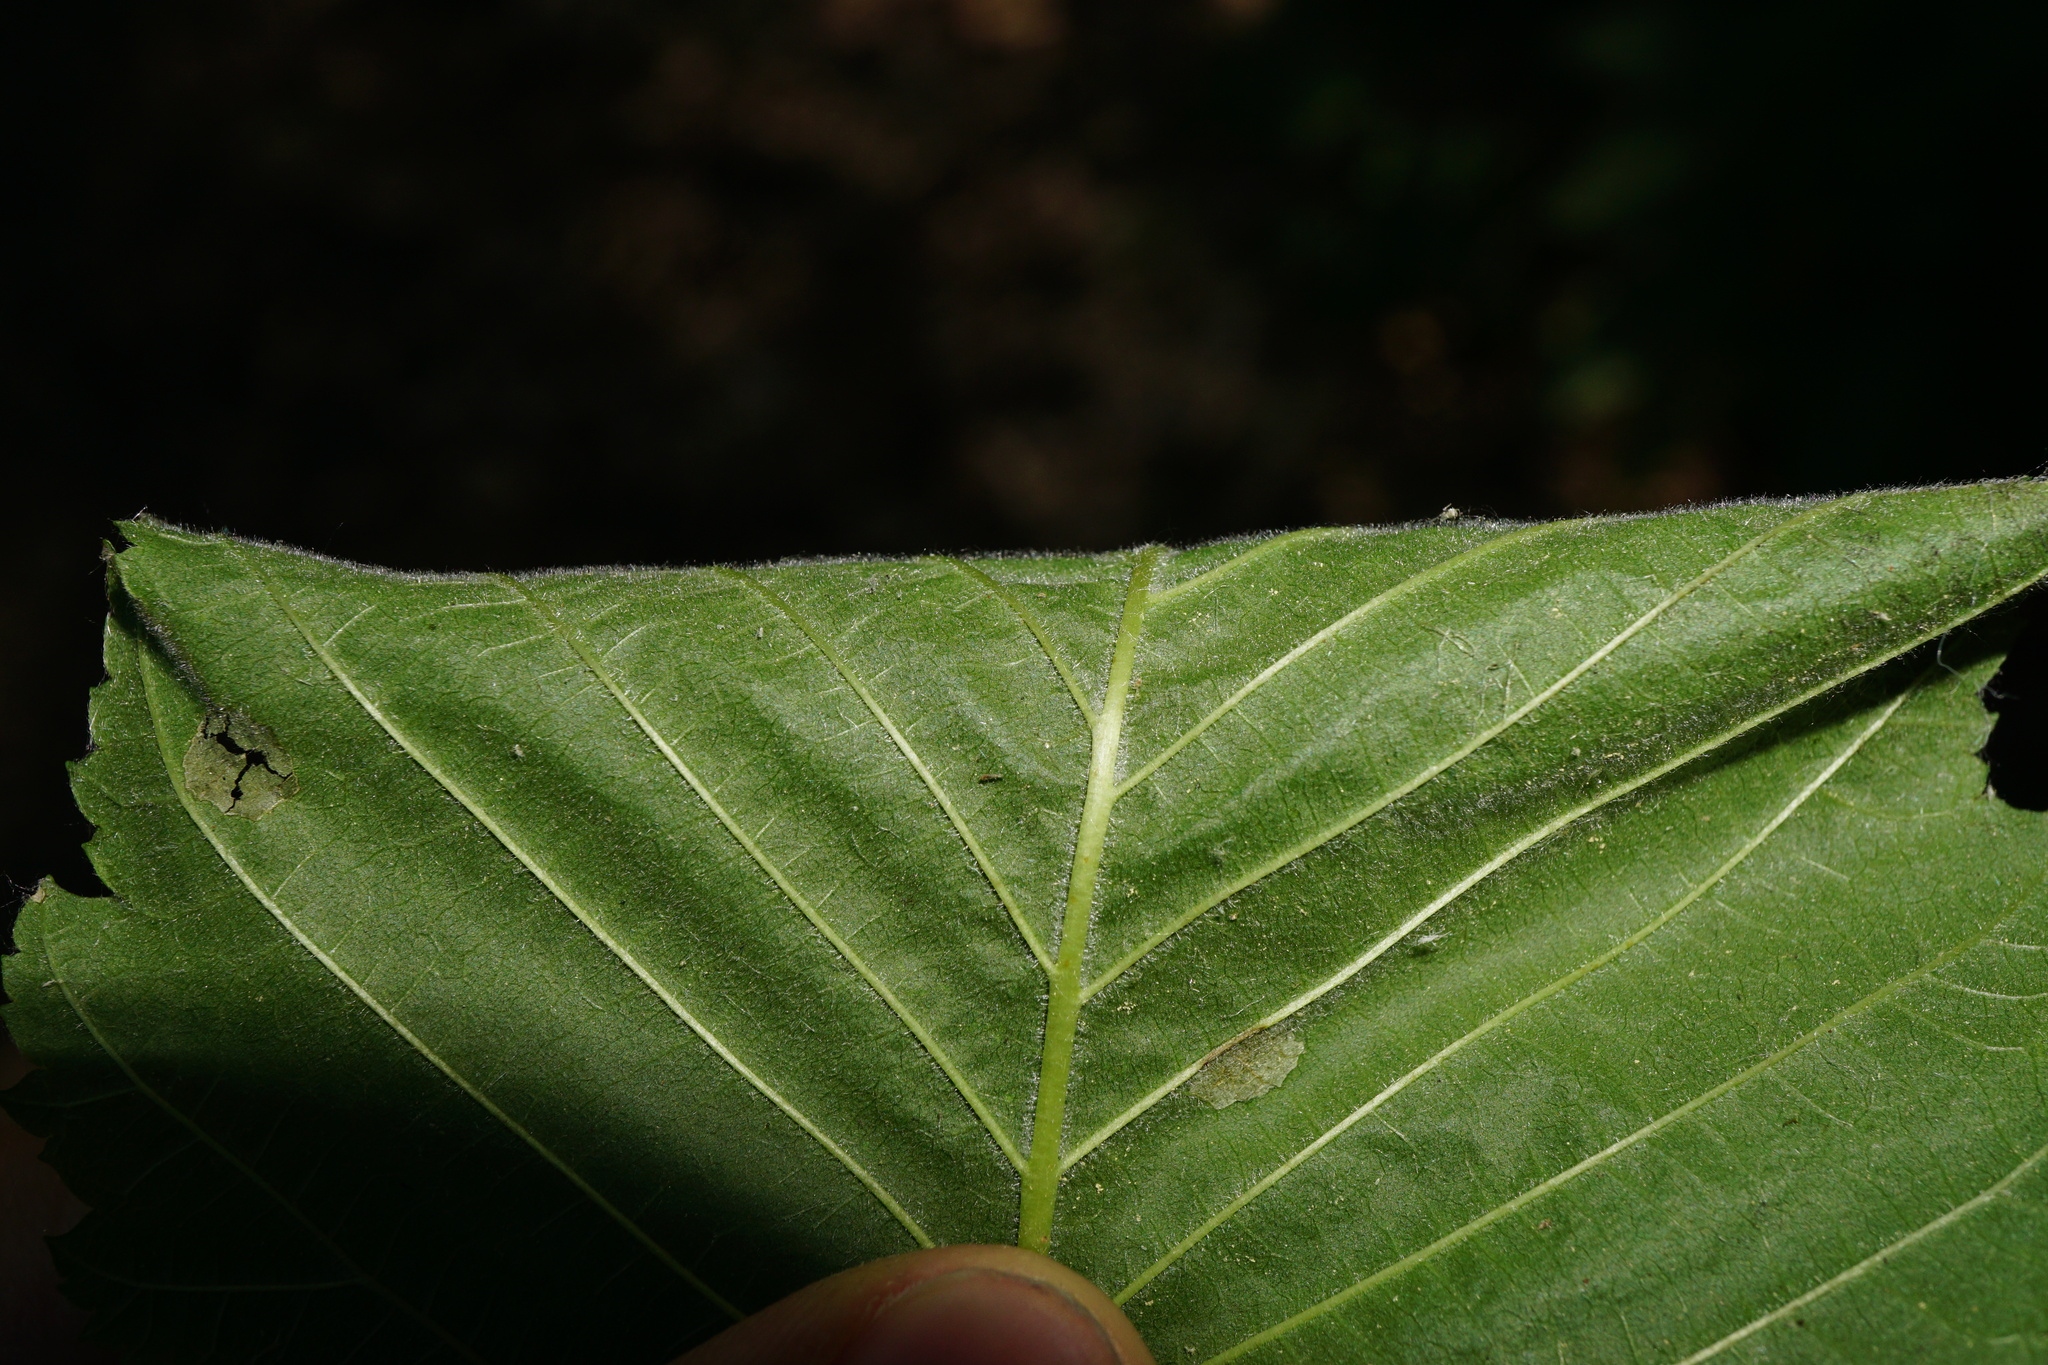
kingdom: Plantae
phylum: Tracheophyta
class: Magnoliopsida
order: Rosales
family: Ulmaceae
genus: Ulmus
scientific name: Ulmus laevis
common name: European white-elm
